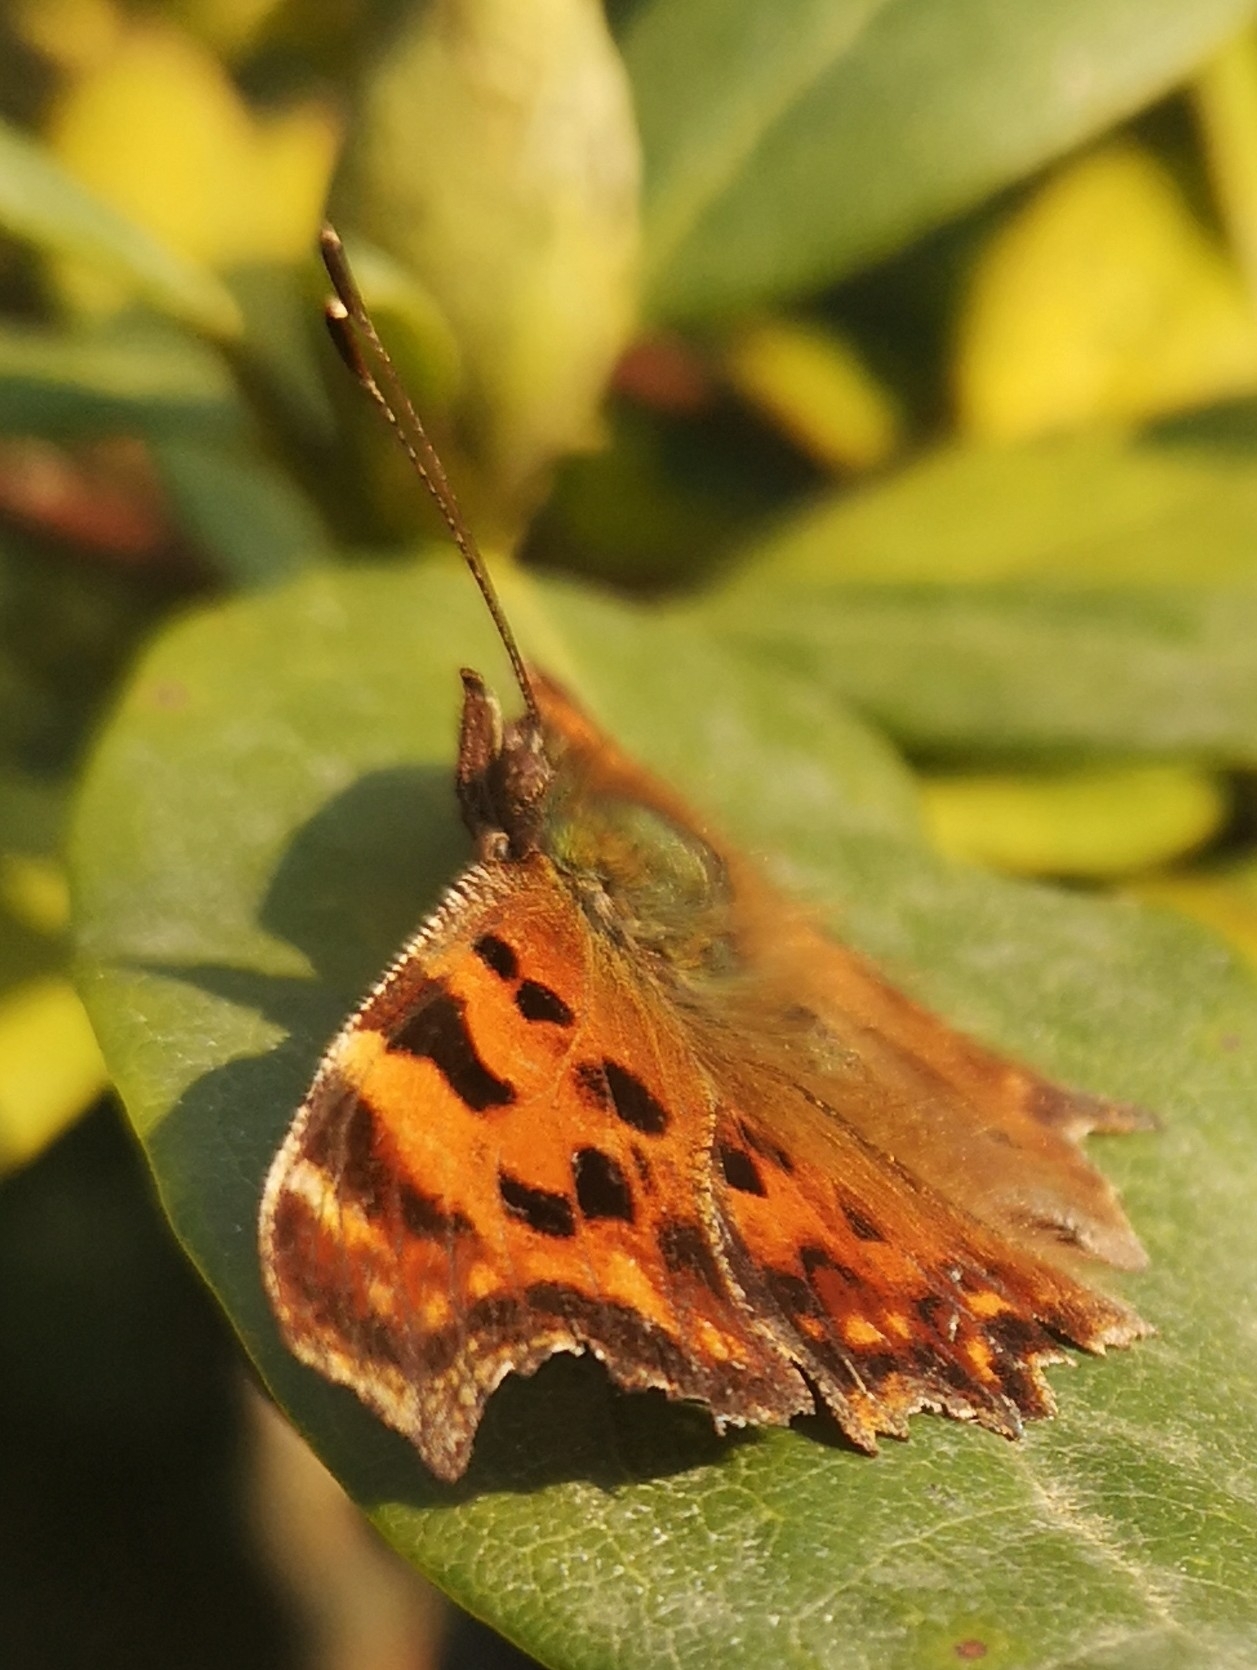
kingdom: Animalia
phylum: Arthropoda
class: Insecta
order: Lepidoptera
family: Nymphalidae
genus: Polygonia
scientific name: Polygonia c-album
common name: Comma
